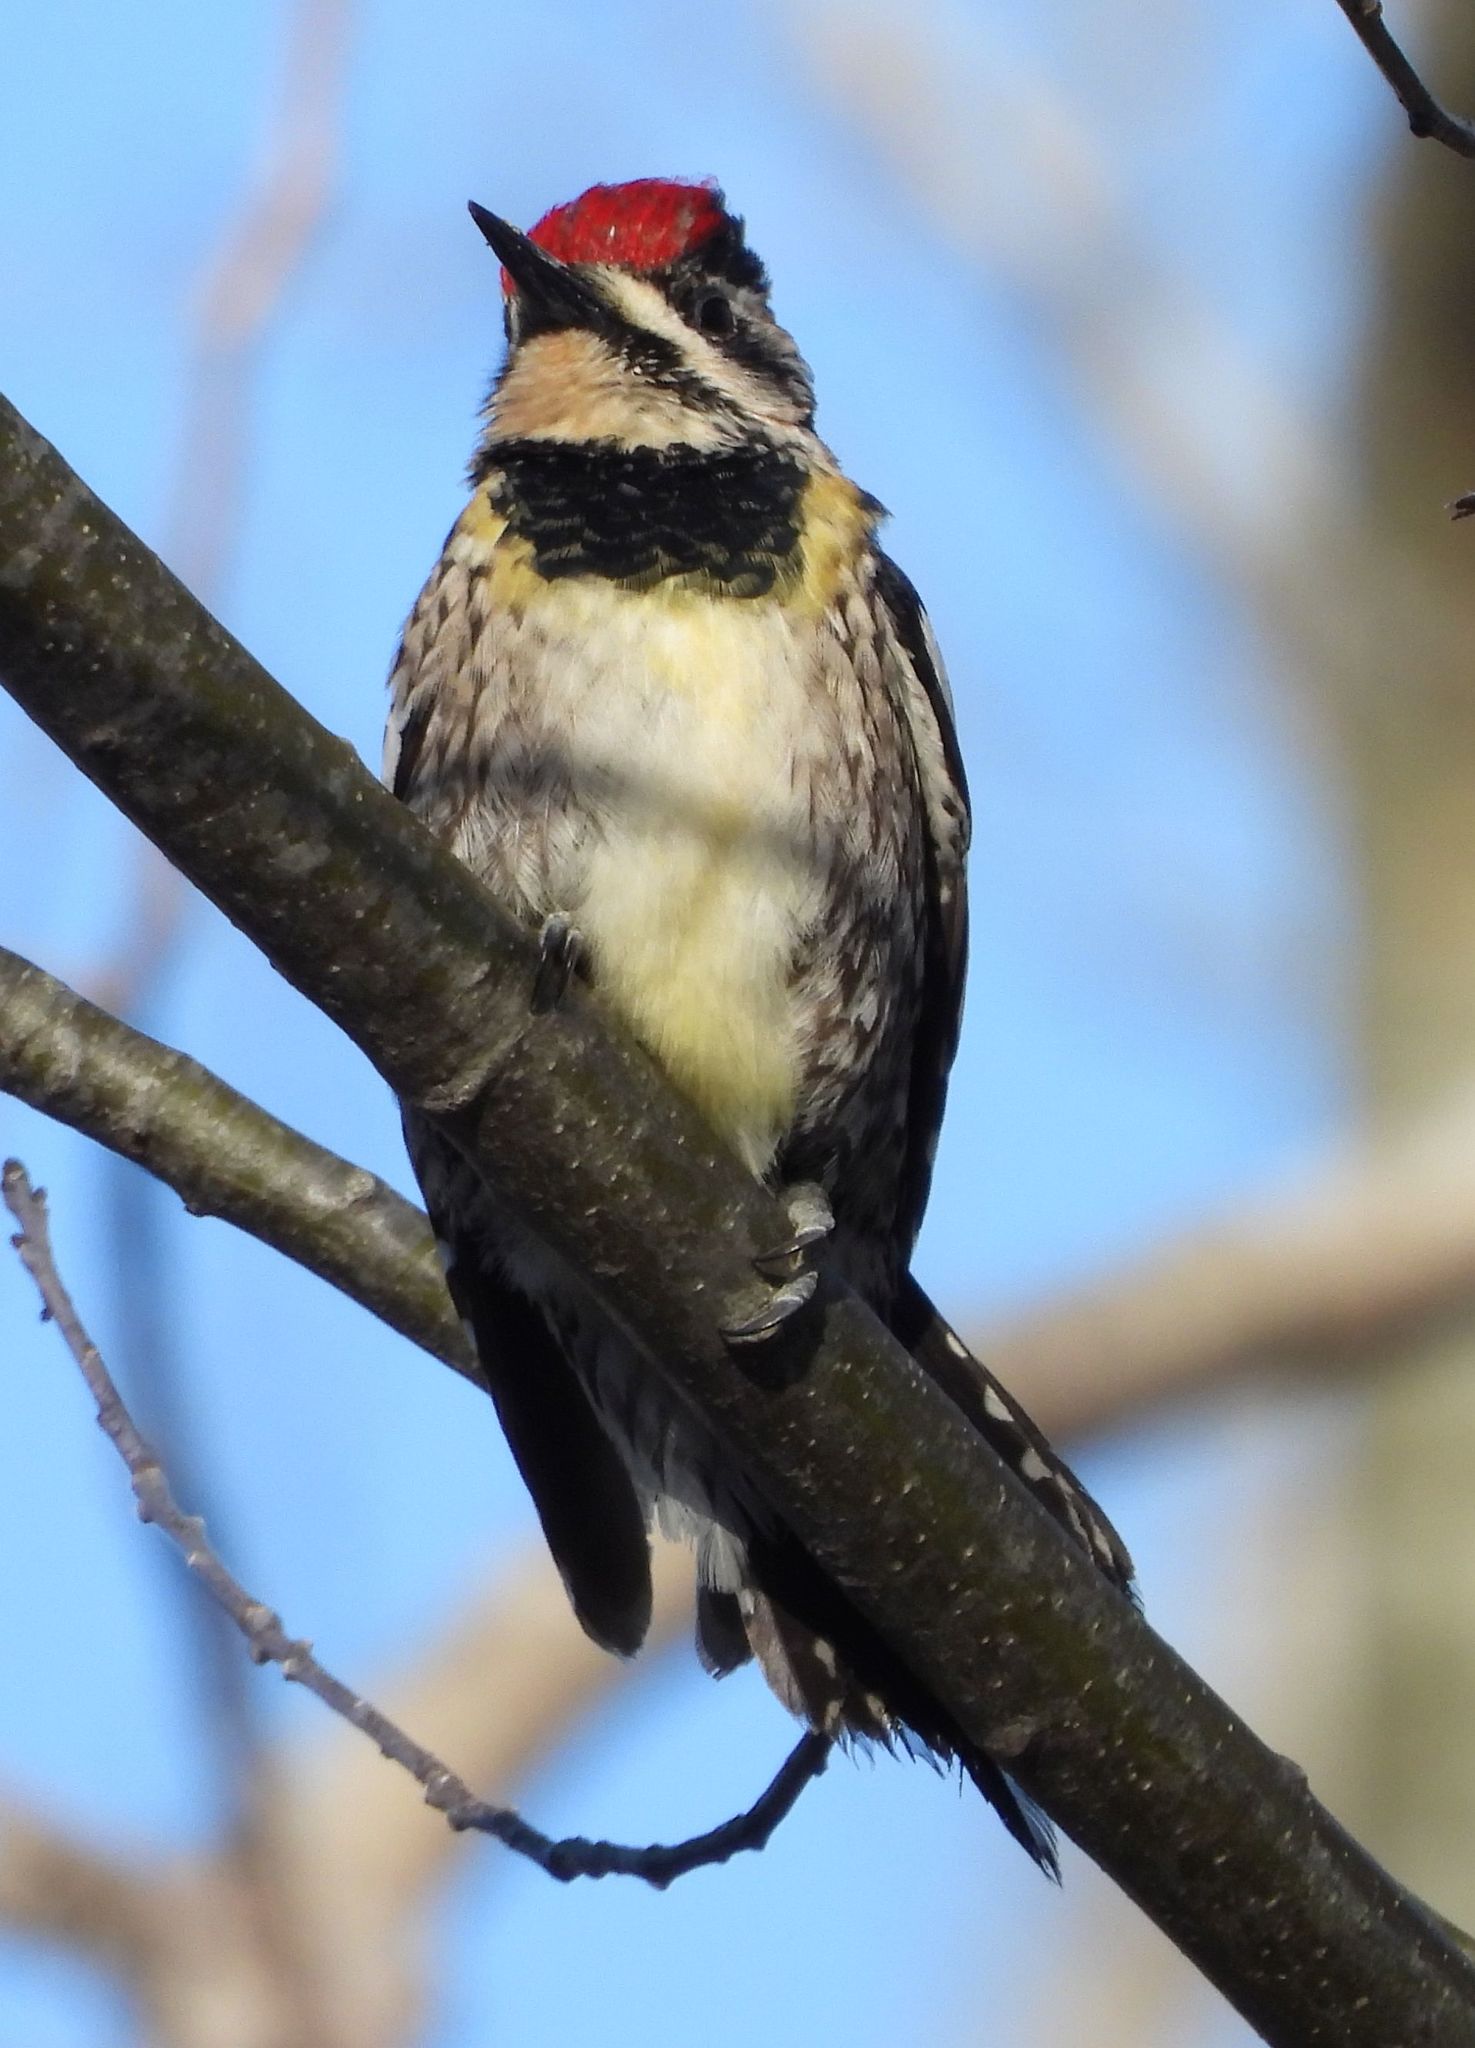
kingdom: Animalia
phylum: Chordata
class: Aves
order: Piciformes
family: Picidae
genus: Sphyrapicus
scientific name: Sphyrapicus varius
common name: Yellow-bellied sapsucker
